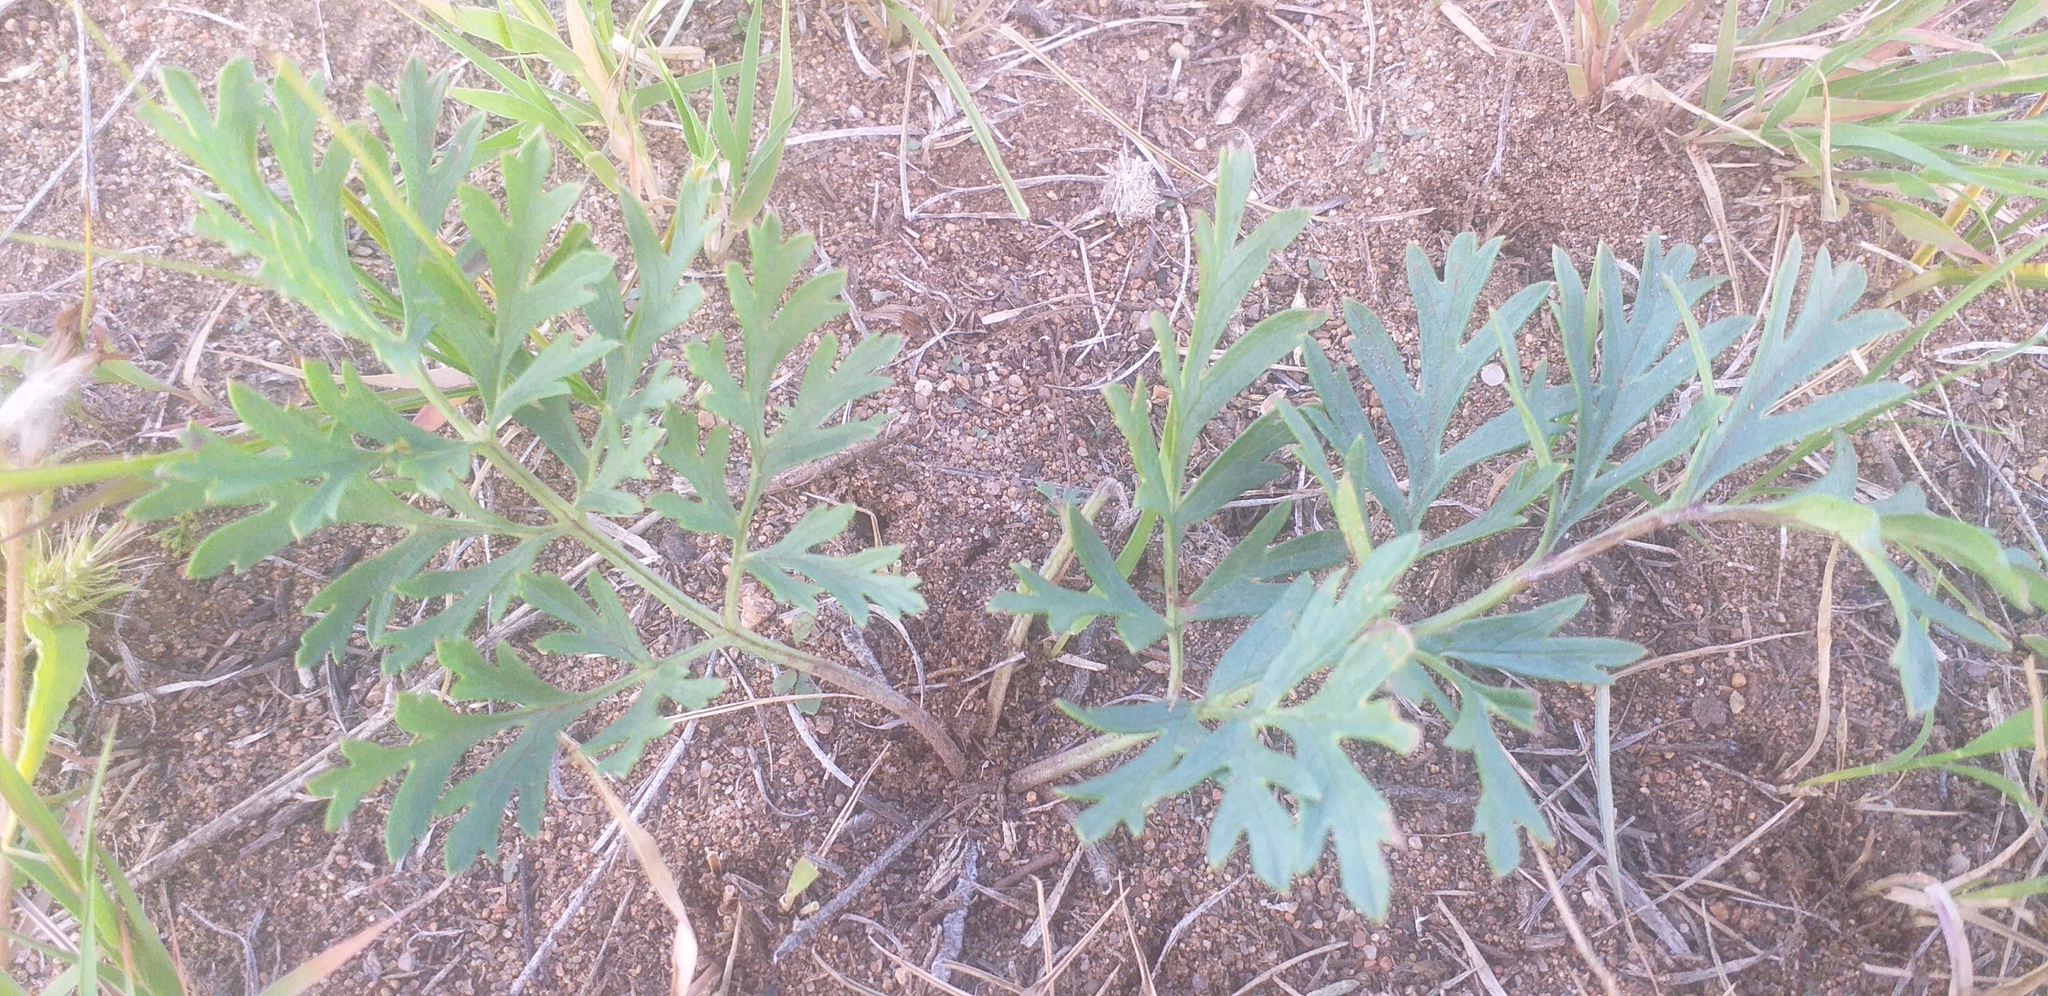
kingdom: Plantae
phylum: Tracheophyta
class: Magnoliopsida
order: Apiales
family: Apiaceae
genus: Saposhnikovia
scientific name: Saposhnikovia divaricata
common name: Siler
